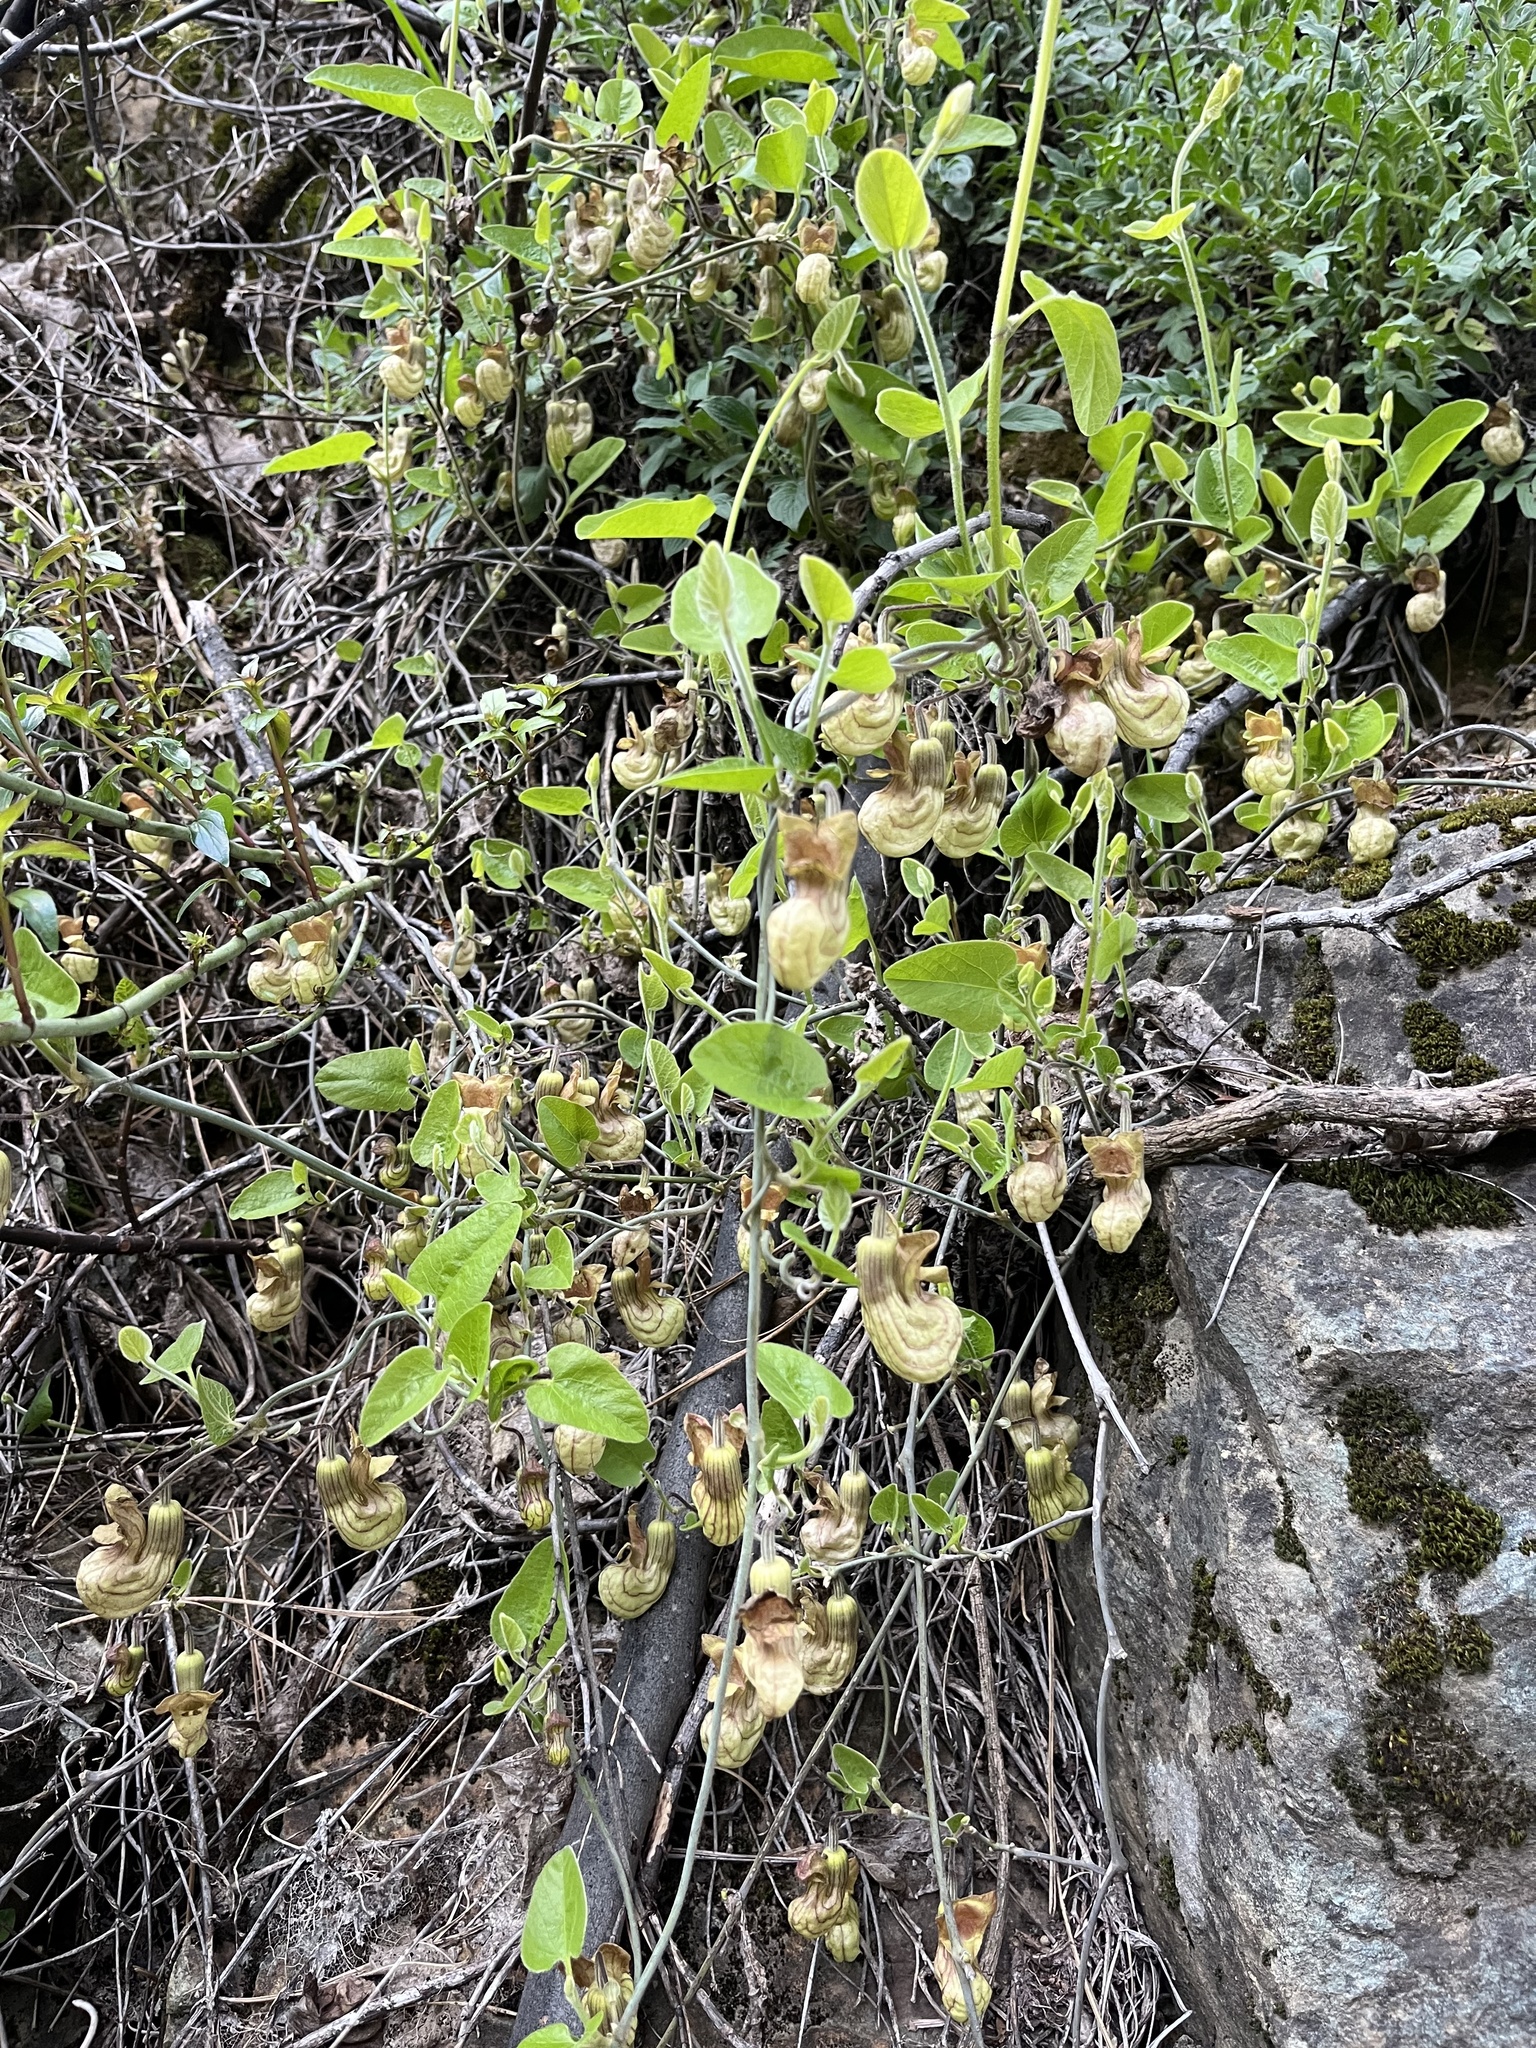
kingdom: Plantae
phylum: Tracheophyta
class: Magnoliopsida
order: Piperales
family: Aristolochiaceae
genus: Isotrema
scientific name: Isotrema californicum
